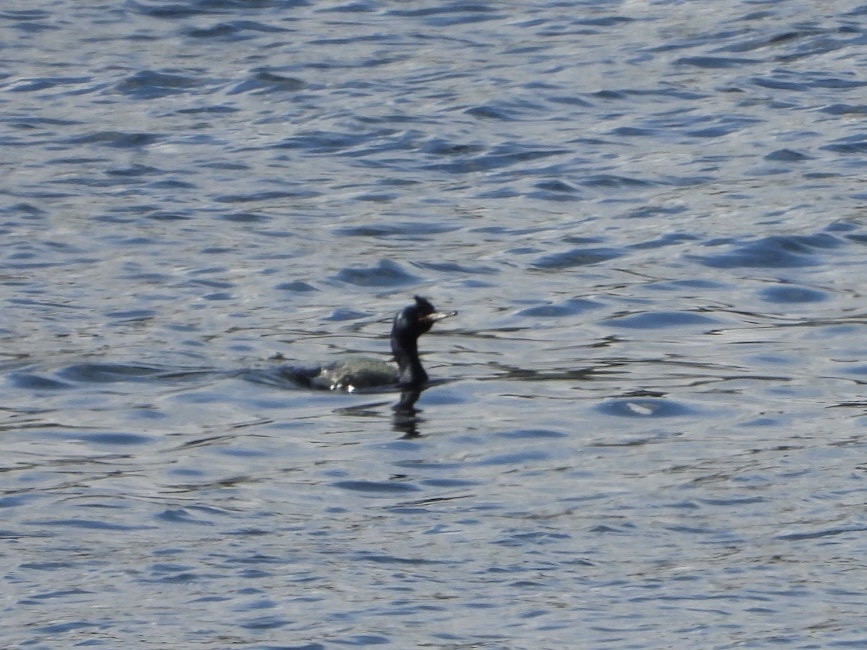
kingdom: Animalia
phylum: Chordata
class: Aves
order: Suliformes
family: Phalacrocoracidae
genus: Phalacrocorax
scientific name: Phalacrocorax pelagicus
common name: Pelagic cormorant
